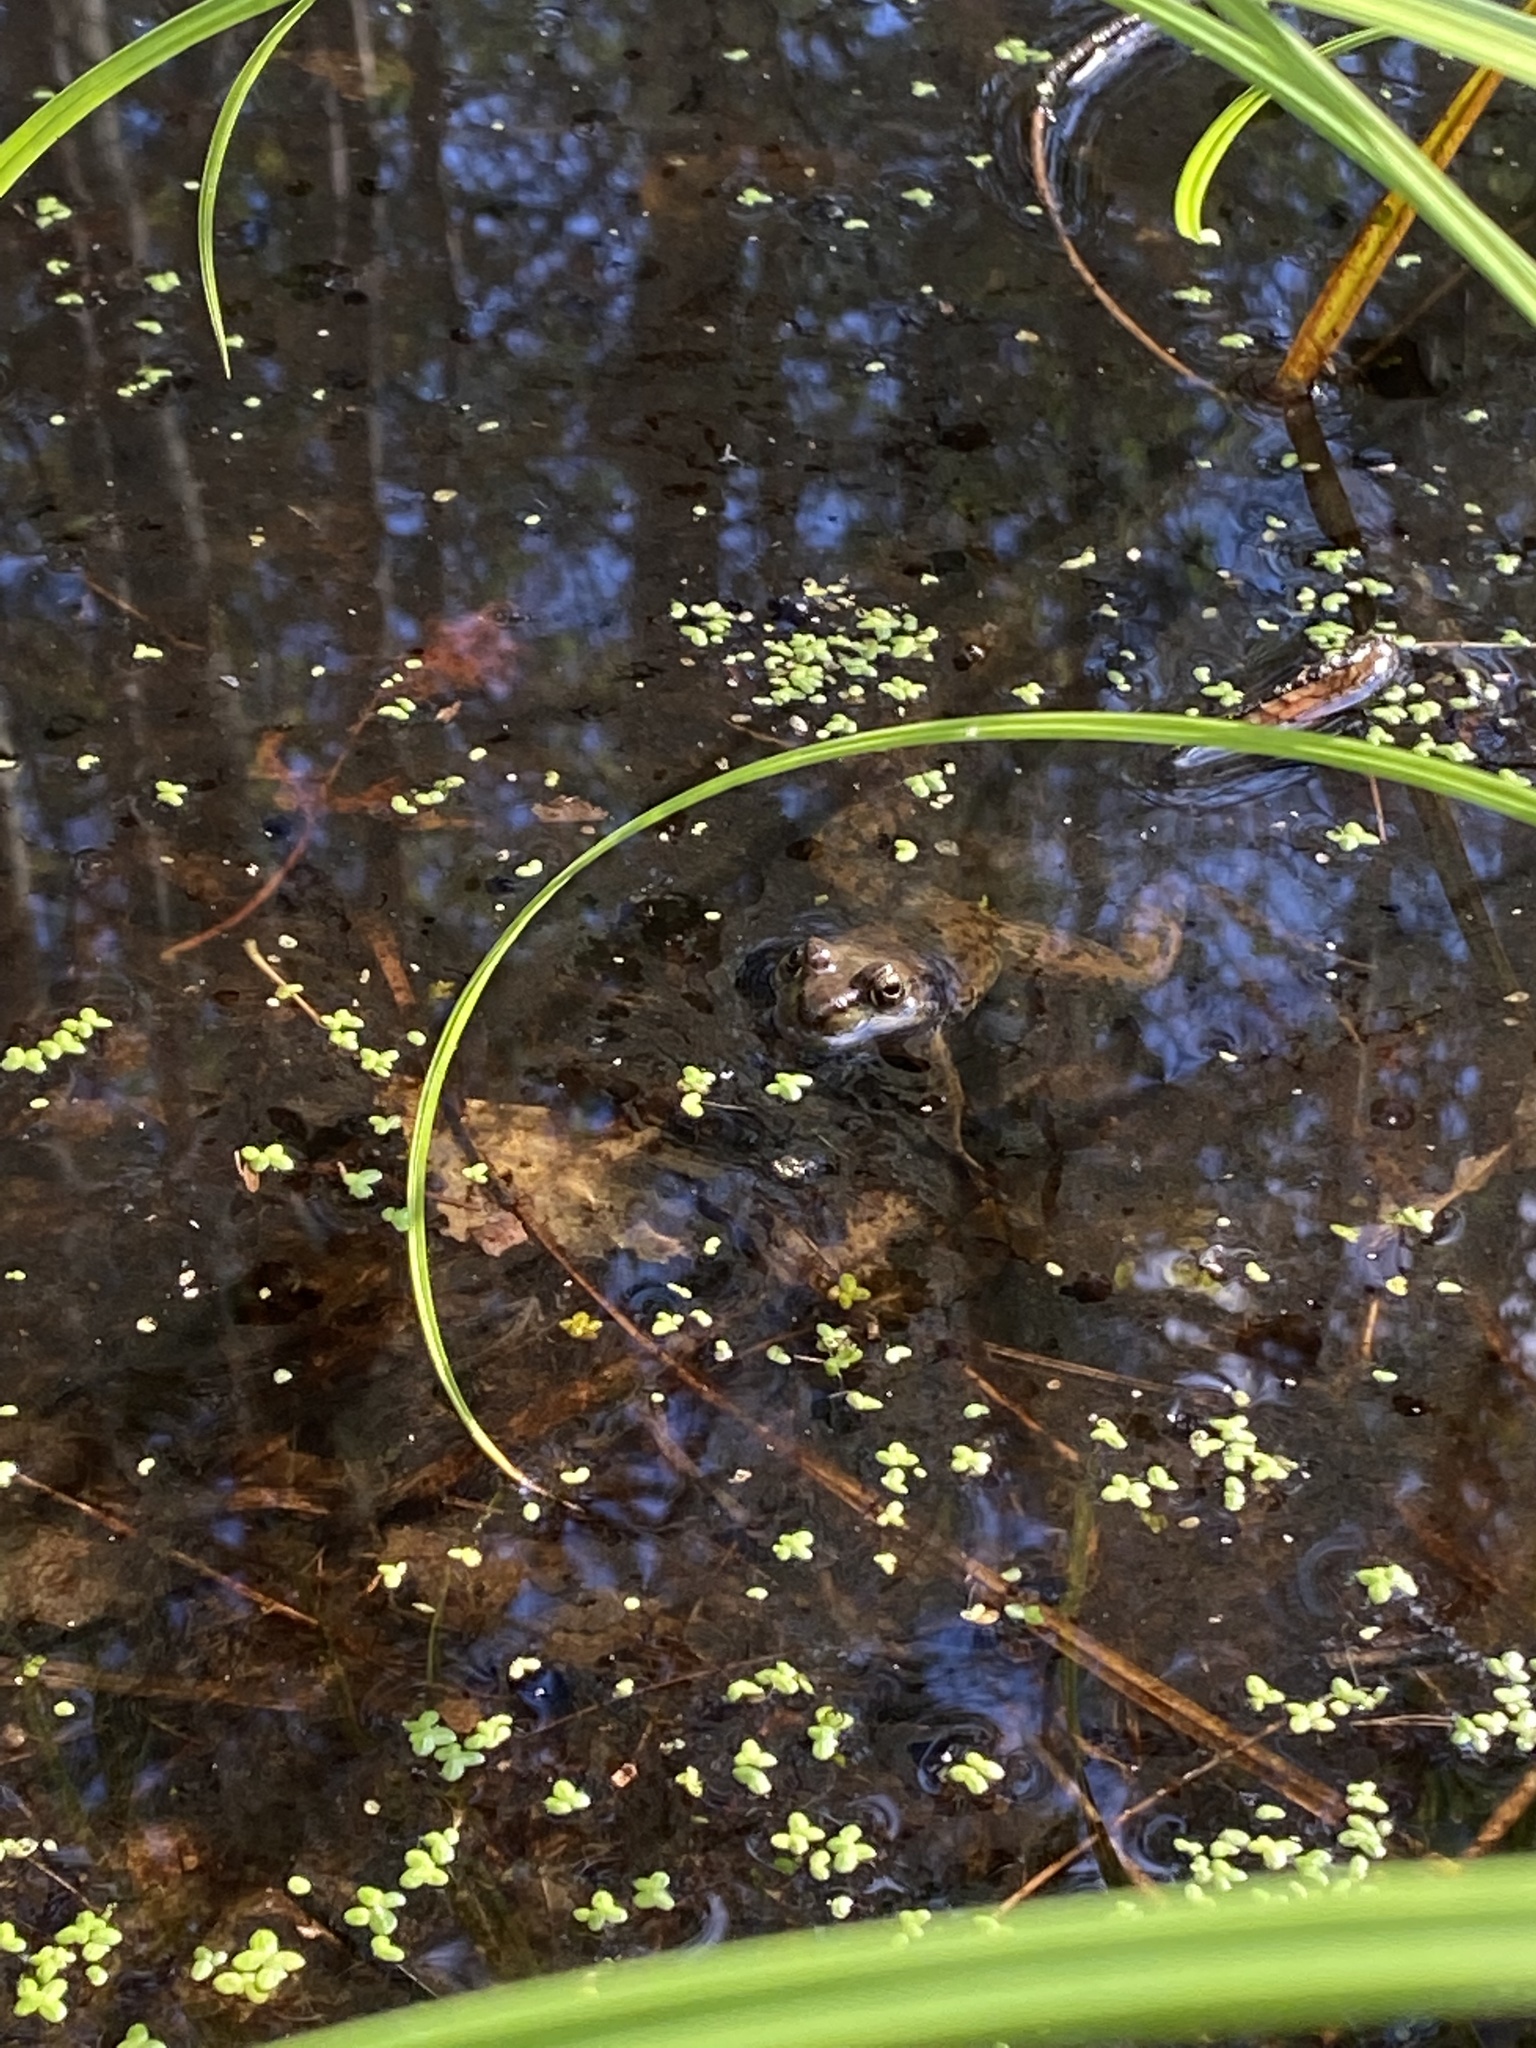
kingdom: Animalia
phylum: Chordata
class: Amphibia
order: Anura
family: Ranidae
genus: Lithobates
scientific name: Lithobates clamitans
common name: Green frog
